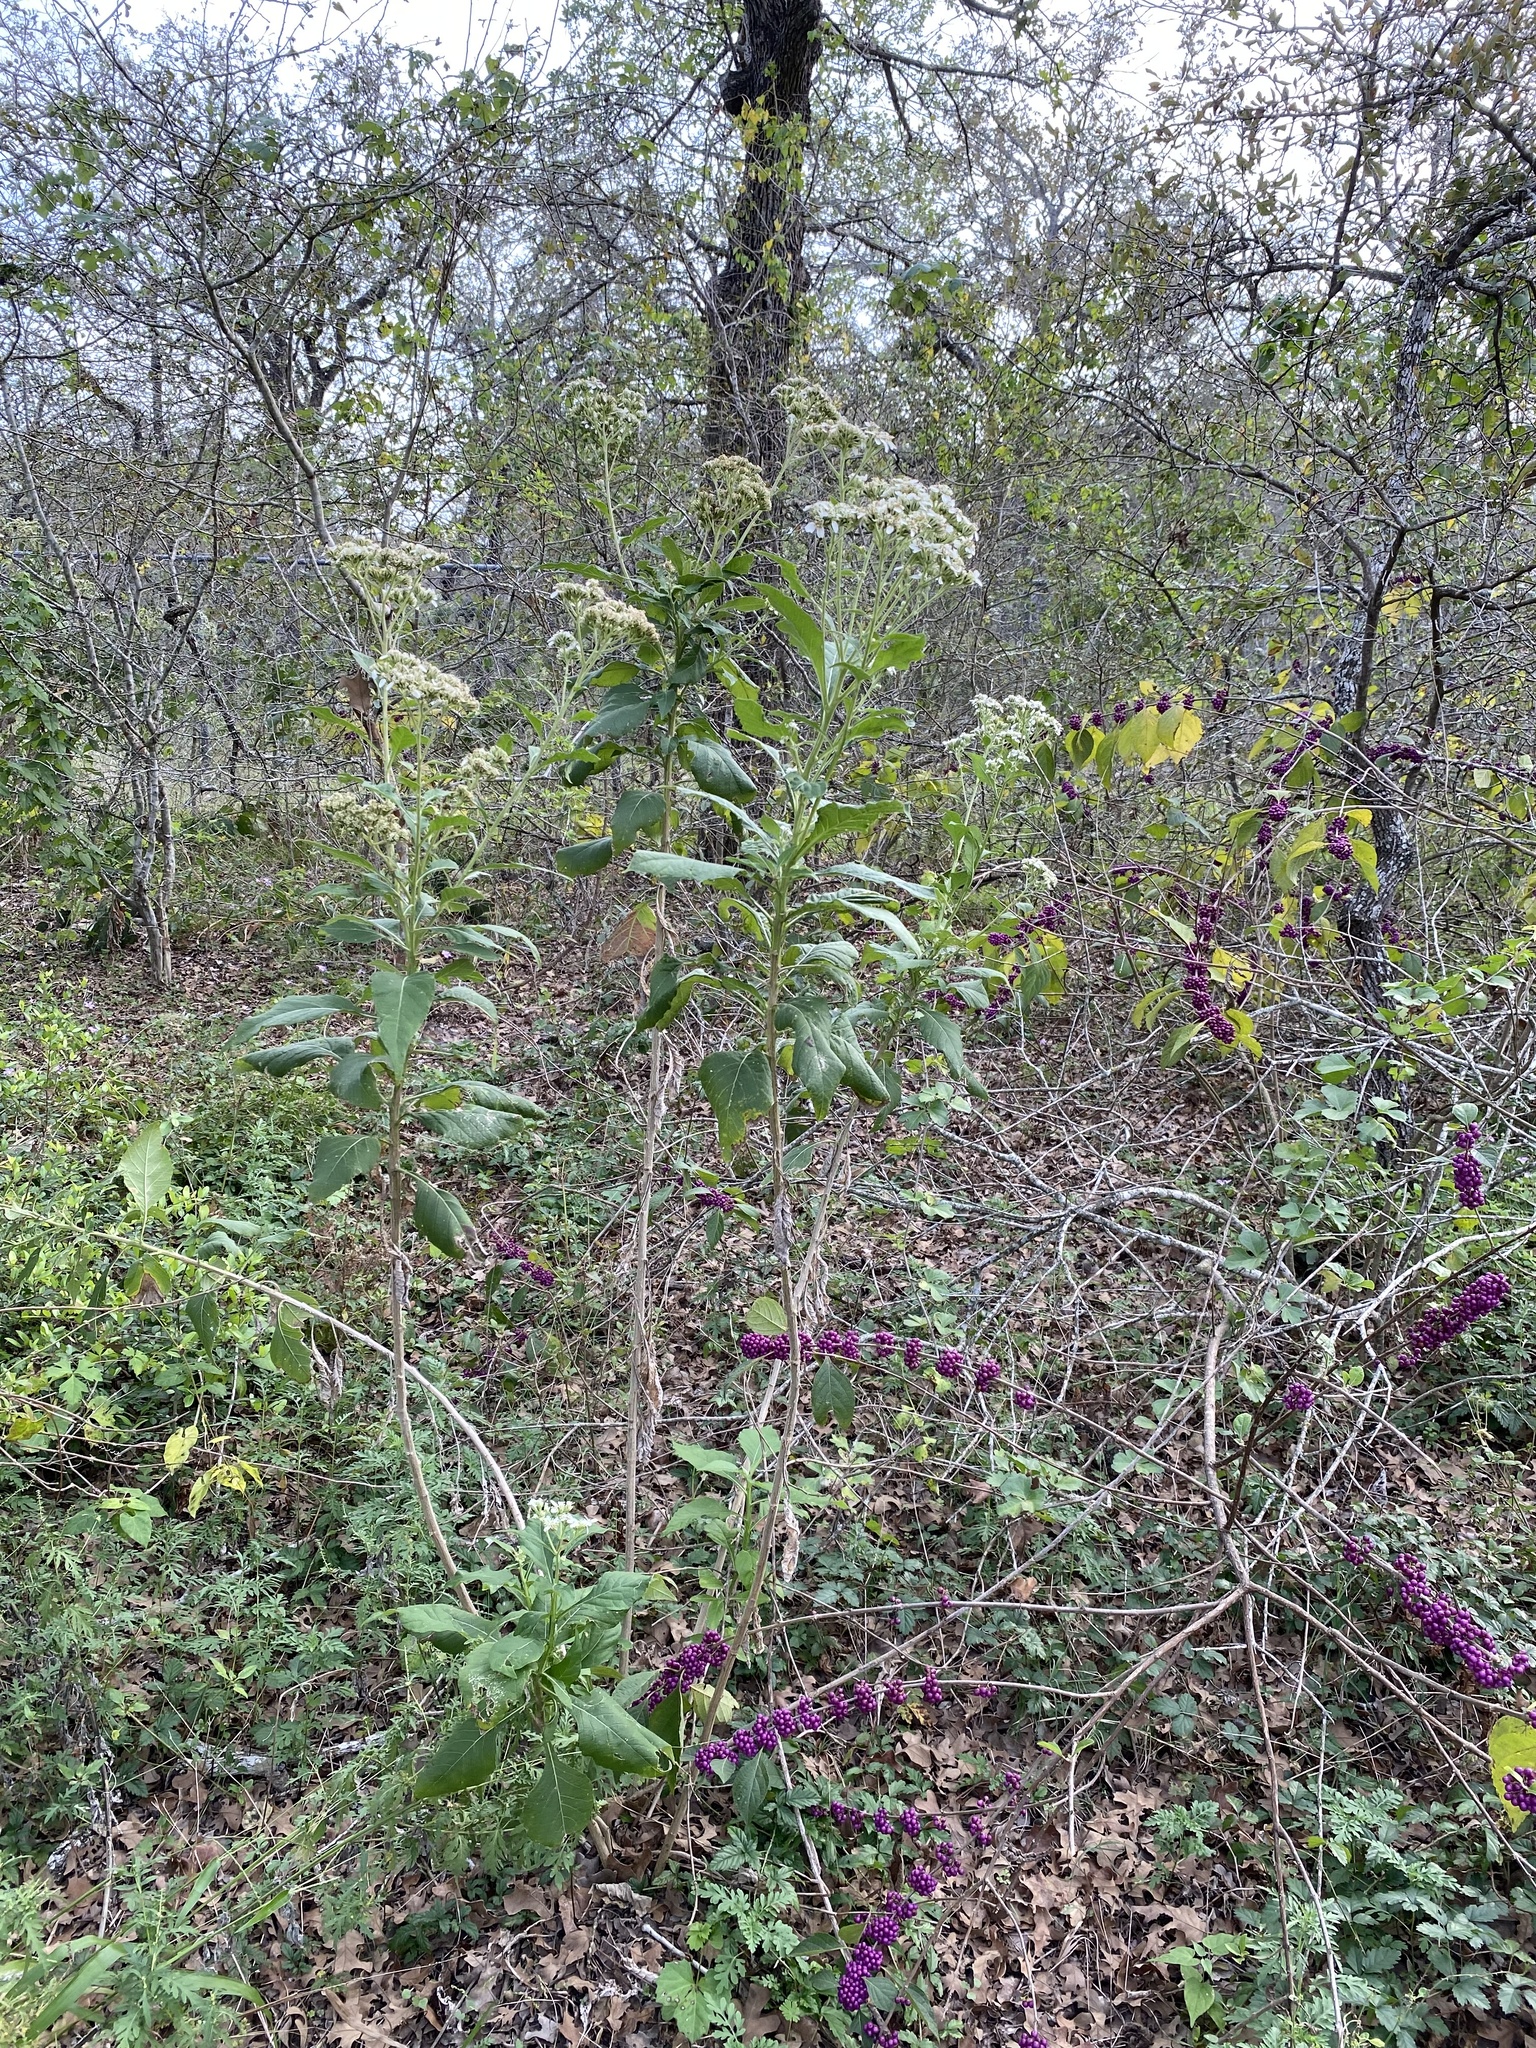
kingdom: Plantae
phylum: Tracheophyta
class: Magnoliopsida
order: Asterales
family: Asteraceae
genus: Verbesina
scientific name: Verbesina virginica
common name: Frostweed
